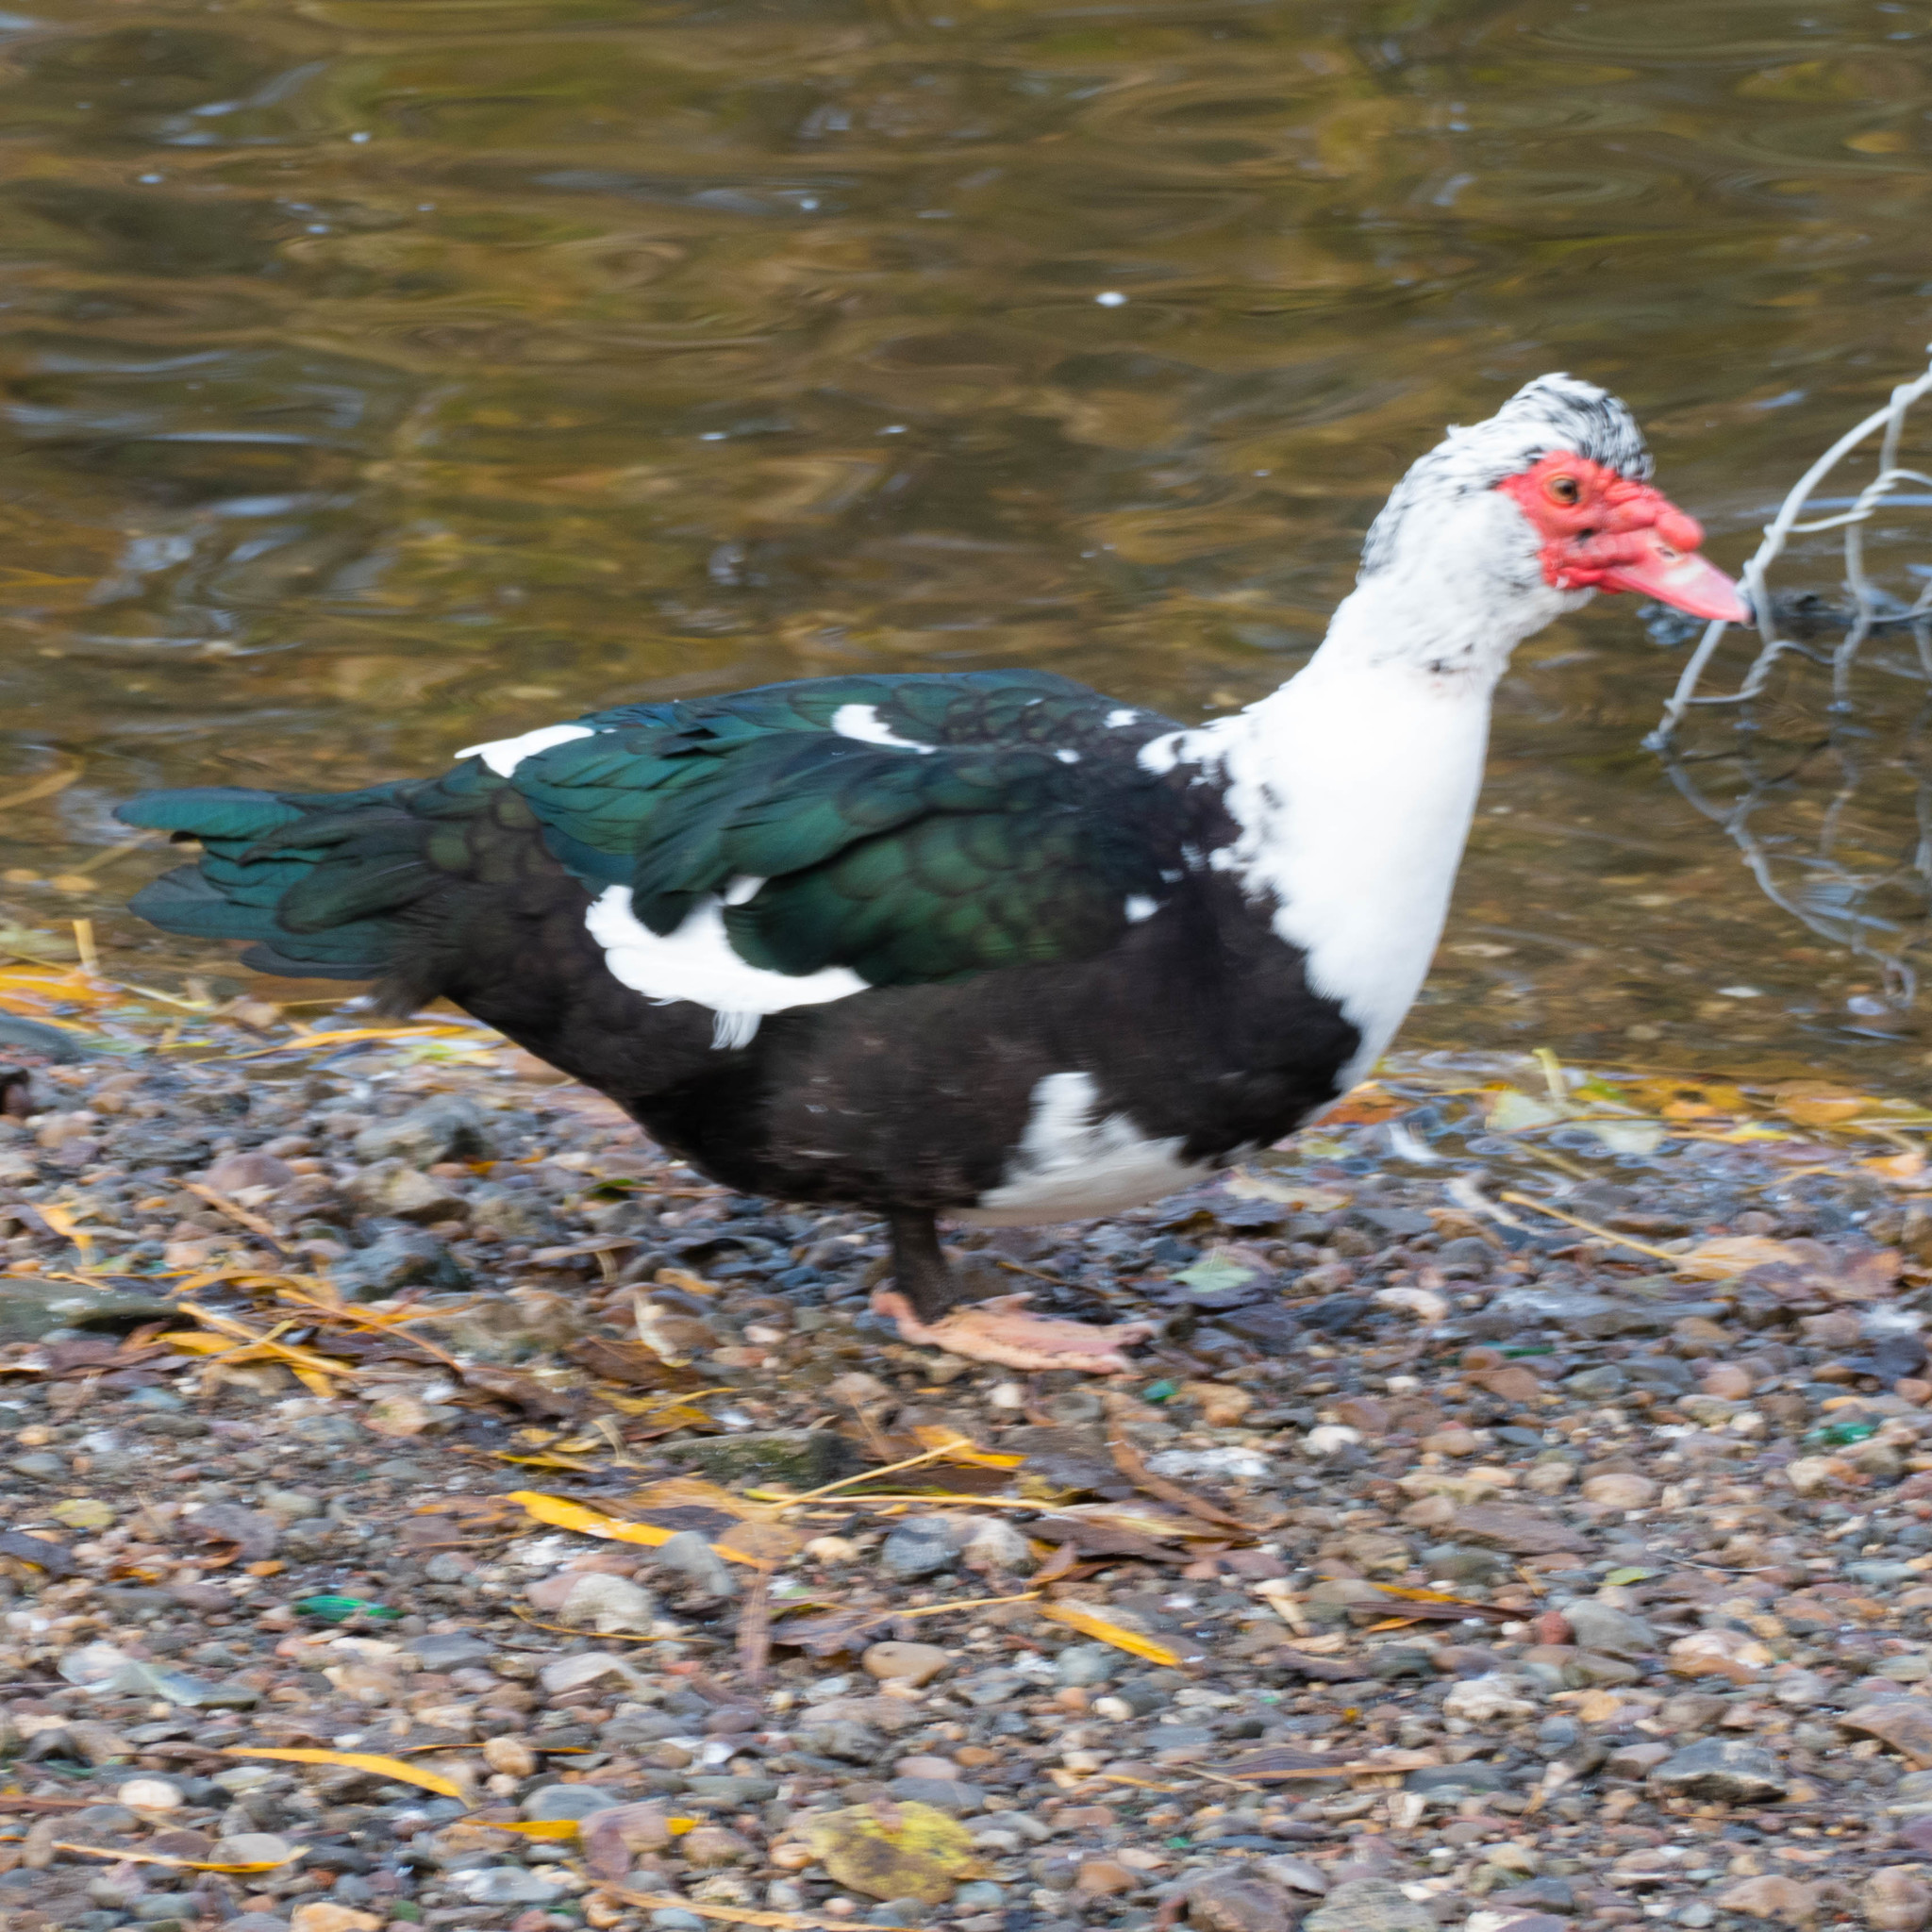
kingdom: Animalia
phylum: Chordata
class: Aves
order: Anseriformes
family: Anatidae
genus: Cairina
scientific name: Cairina moschata
